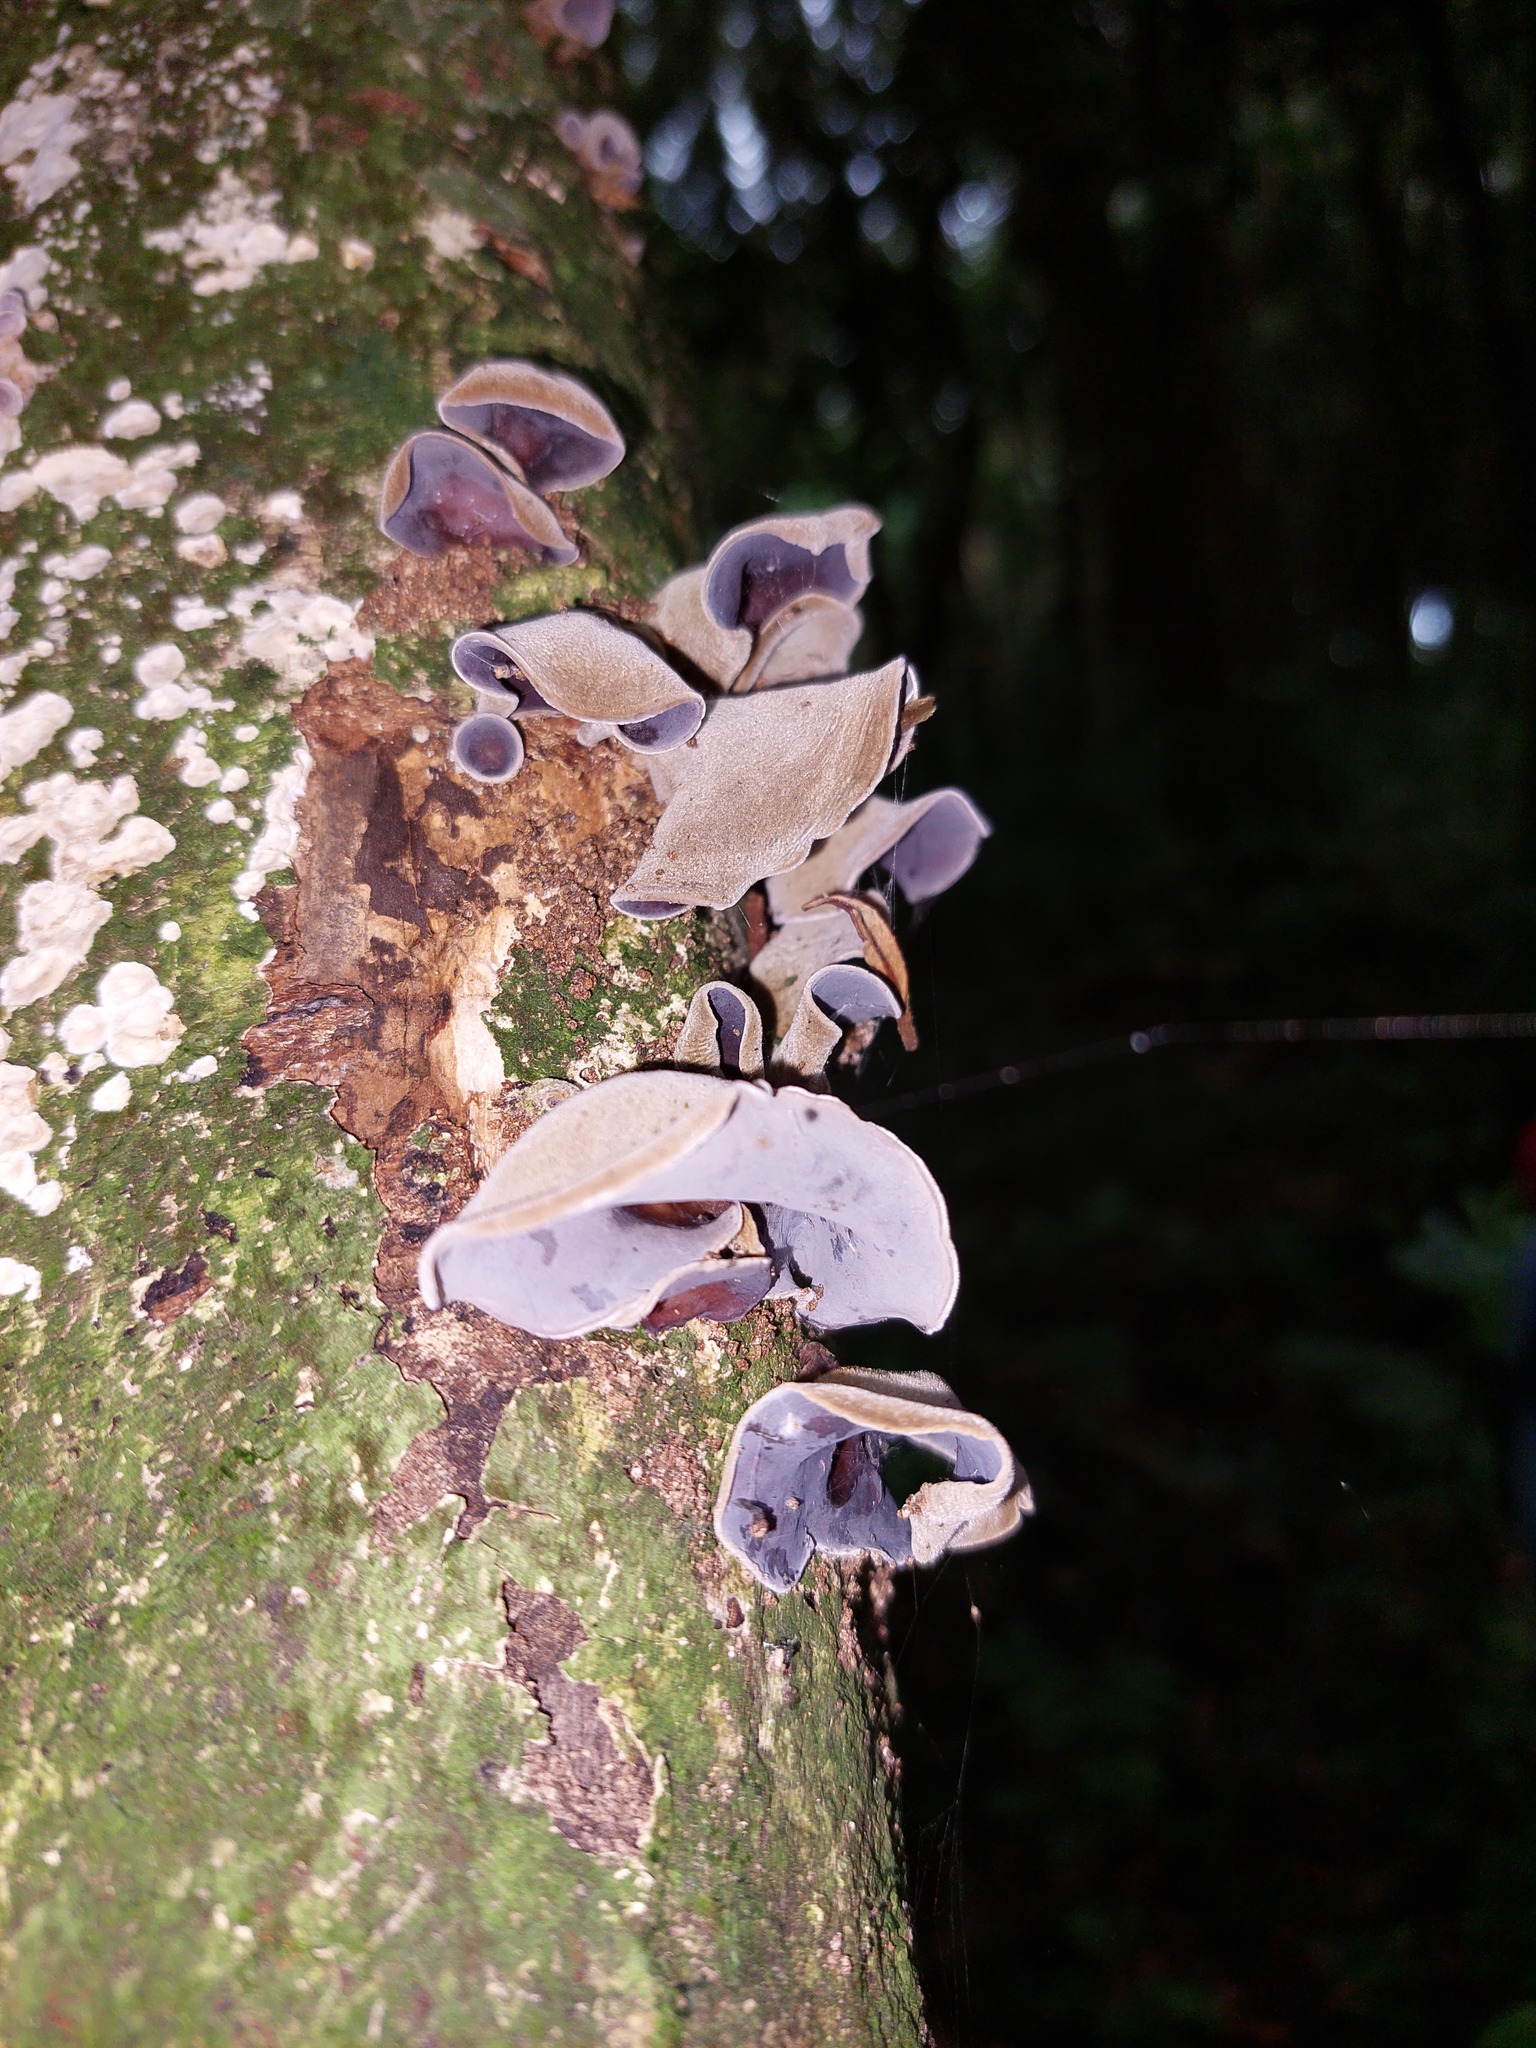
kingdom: Fungi
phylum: Basidiomycota
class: Agaricomycetes
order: Auriculariales
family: Auriculariaceae
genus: Auricularia
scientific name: Auricularia cornea
